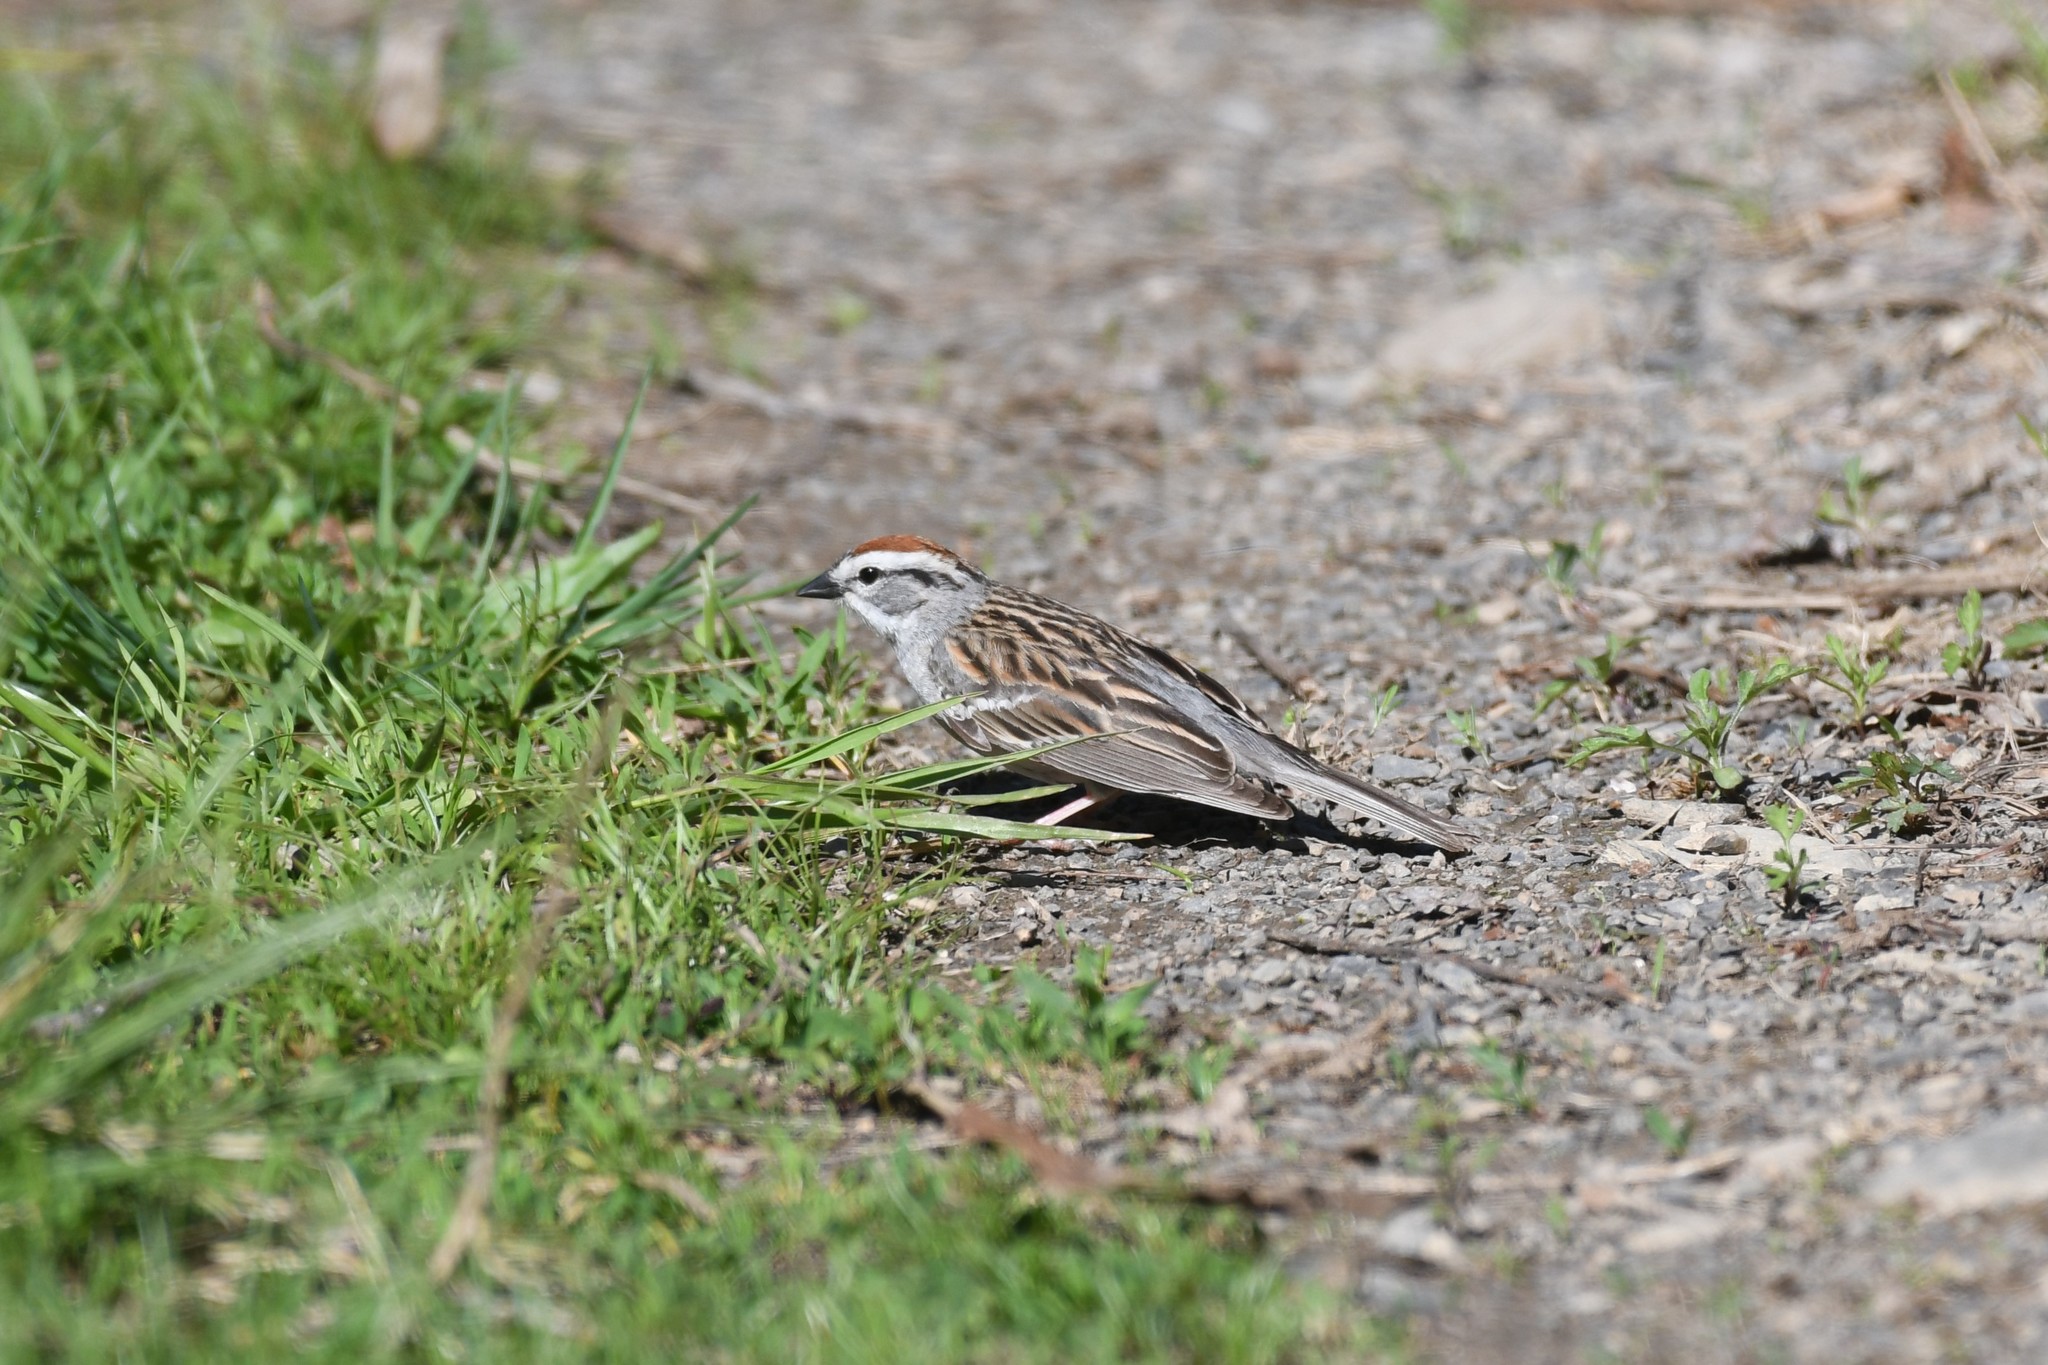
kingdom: Animalia
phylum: Chordata
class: Aves
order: Passeriformes
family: Passerellidae
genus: Spizella
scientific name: Spizella passerina
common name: Chipping sparrow
